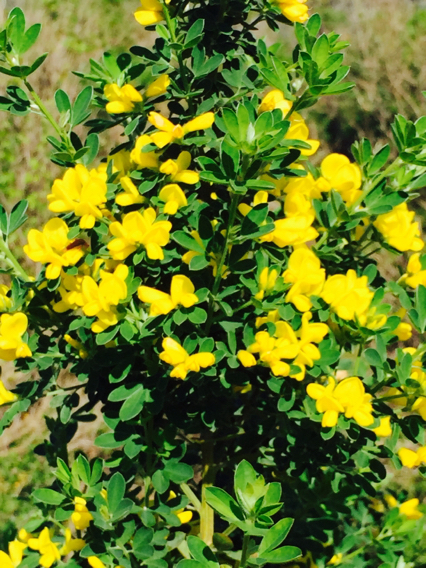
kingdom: Plantae
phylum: Tracheophyta
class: Magnoliopsida
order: Fabales
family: Fabaceae
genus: Genista
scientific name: Genista monspessulana
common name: Montpellier broom
